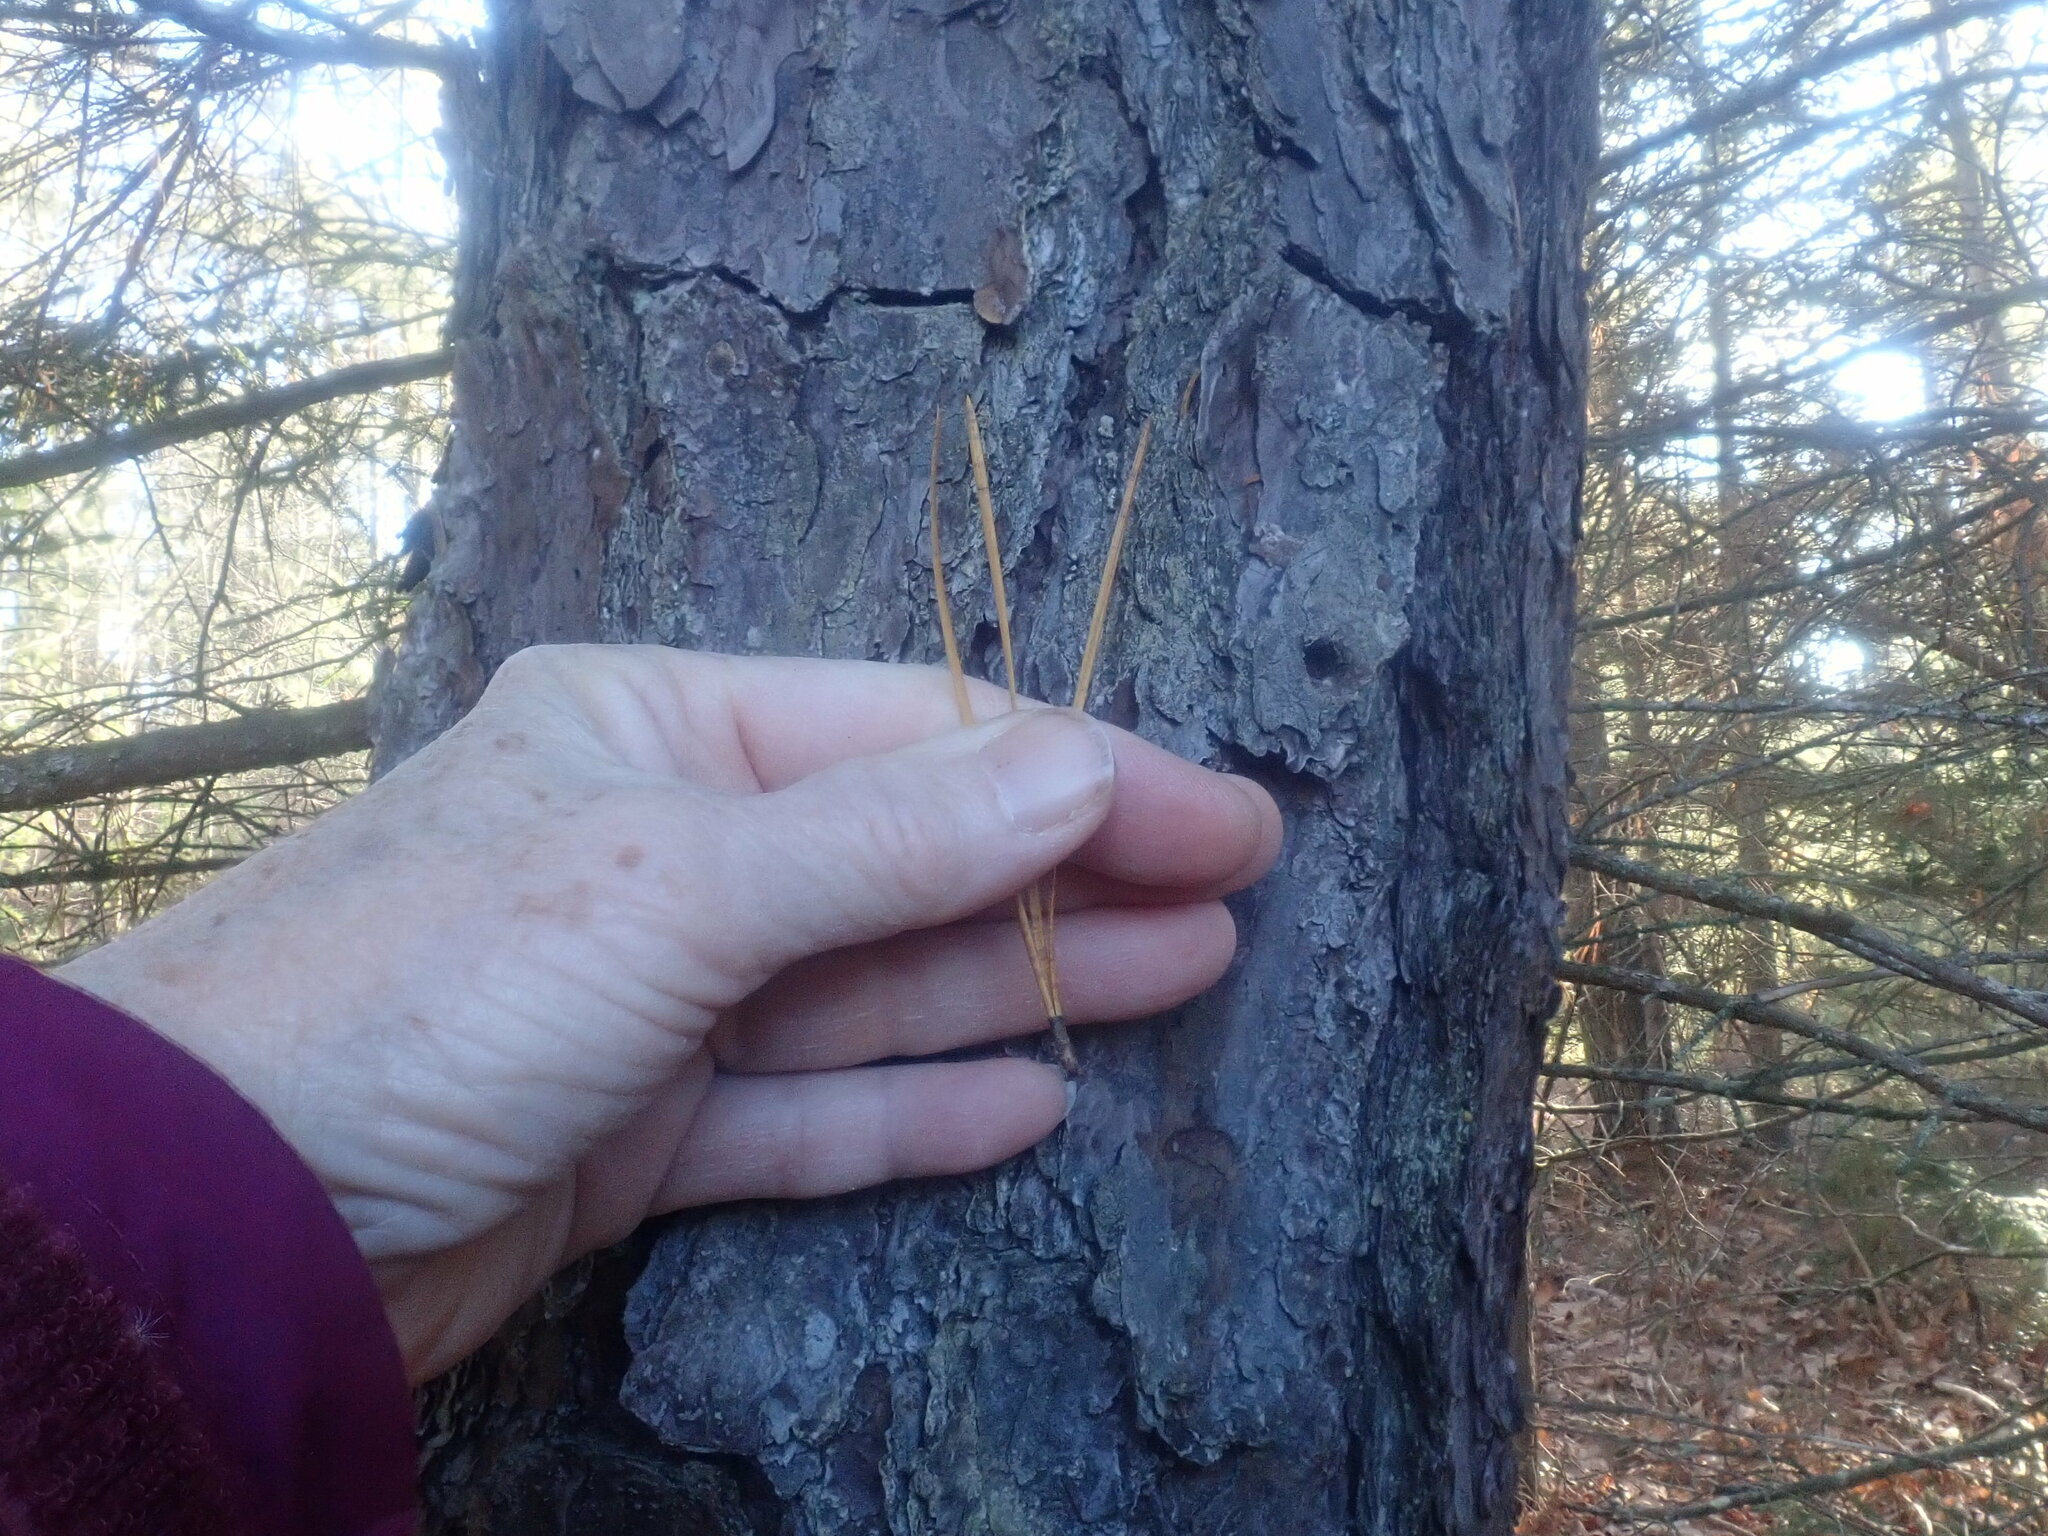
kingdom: Plantae
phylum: Tracheophyta
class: Pinopsida
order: Pinales
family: Pinaceae
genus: Pinus
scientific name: Pinus rigida
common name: Pitch pine
